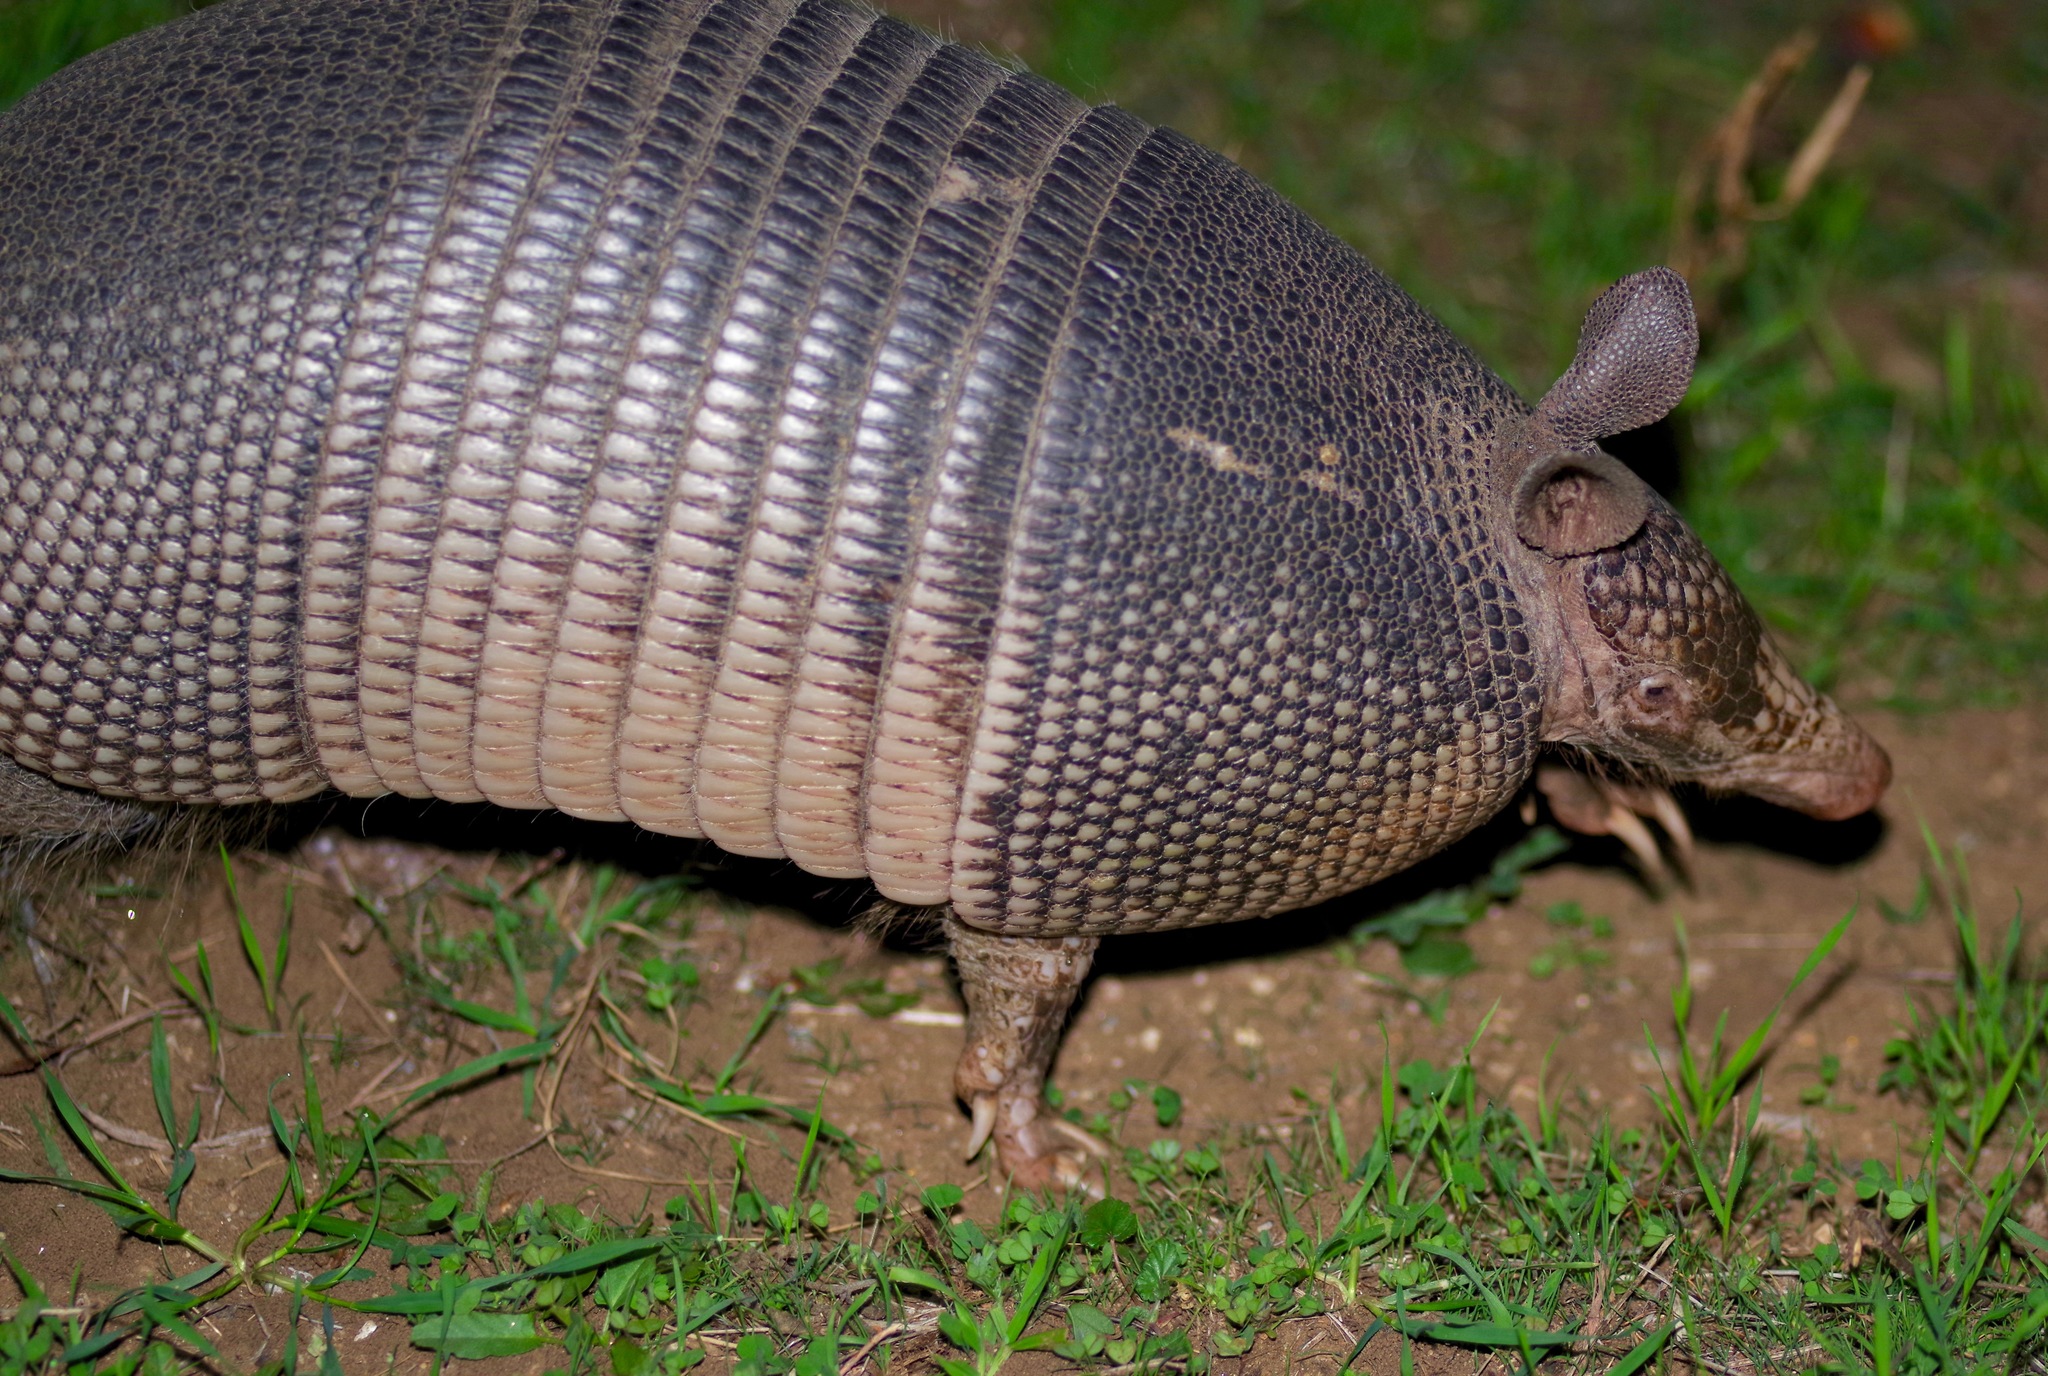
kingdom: Animalia
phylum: Chordata
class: Mammalia
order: Cingulata
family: Dasypodidae
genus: Dasypus
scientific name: Dasypus novemcinctus
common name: Nine-banded armadillo
